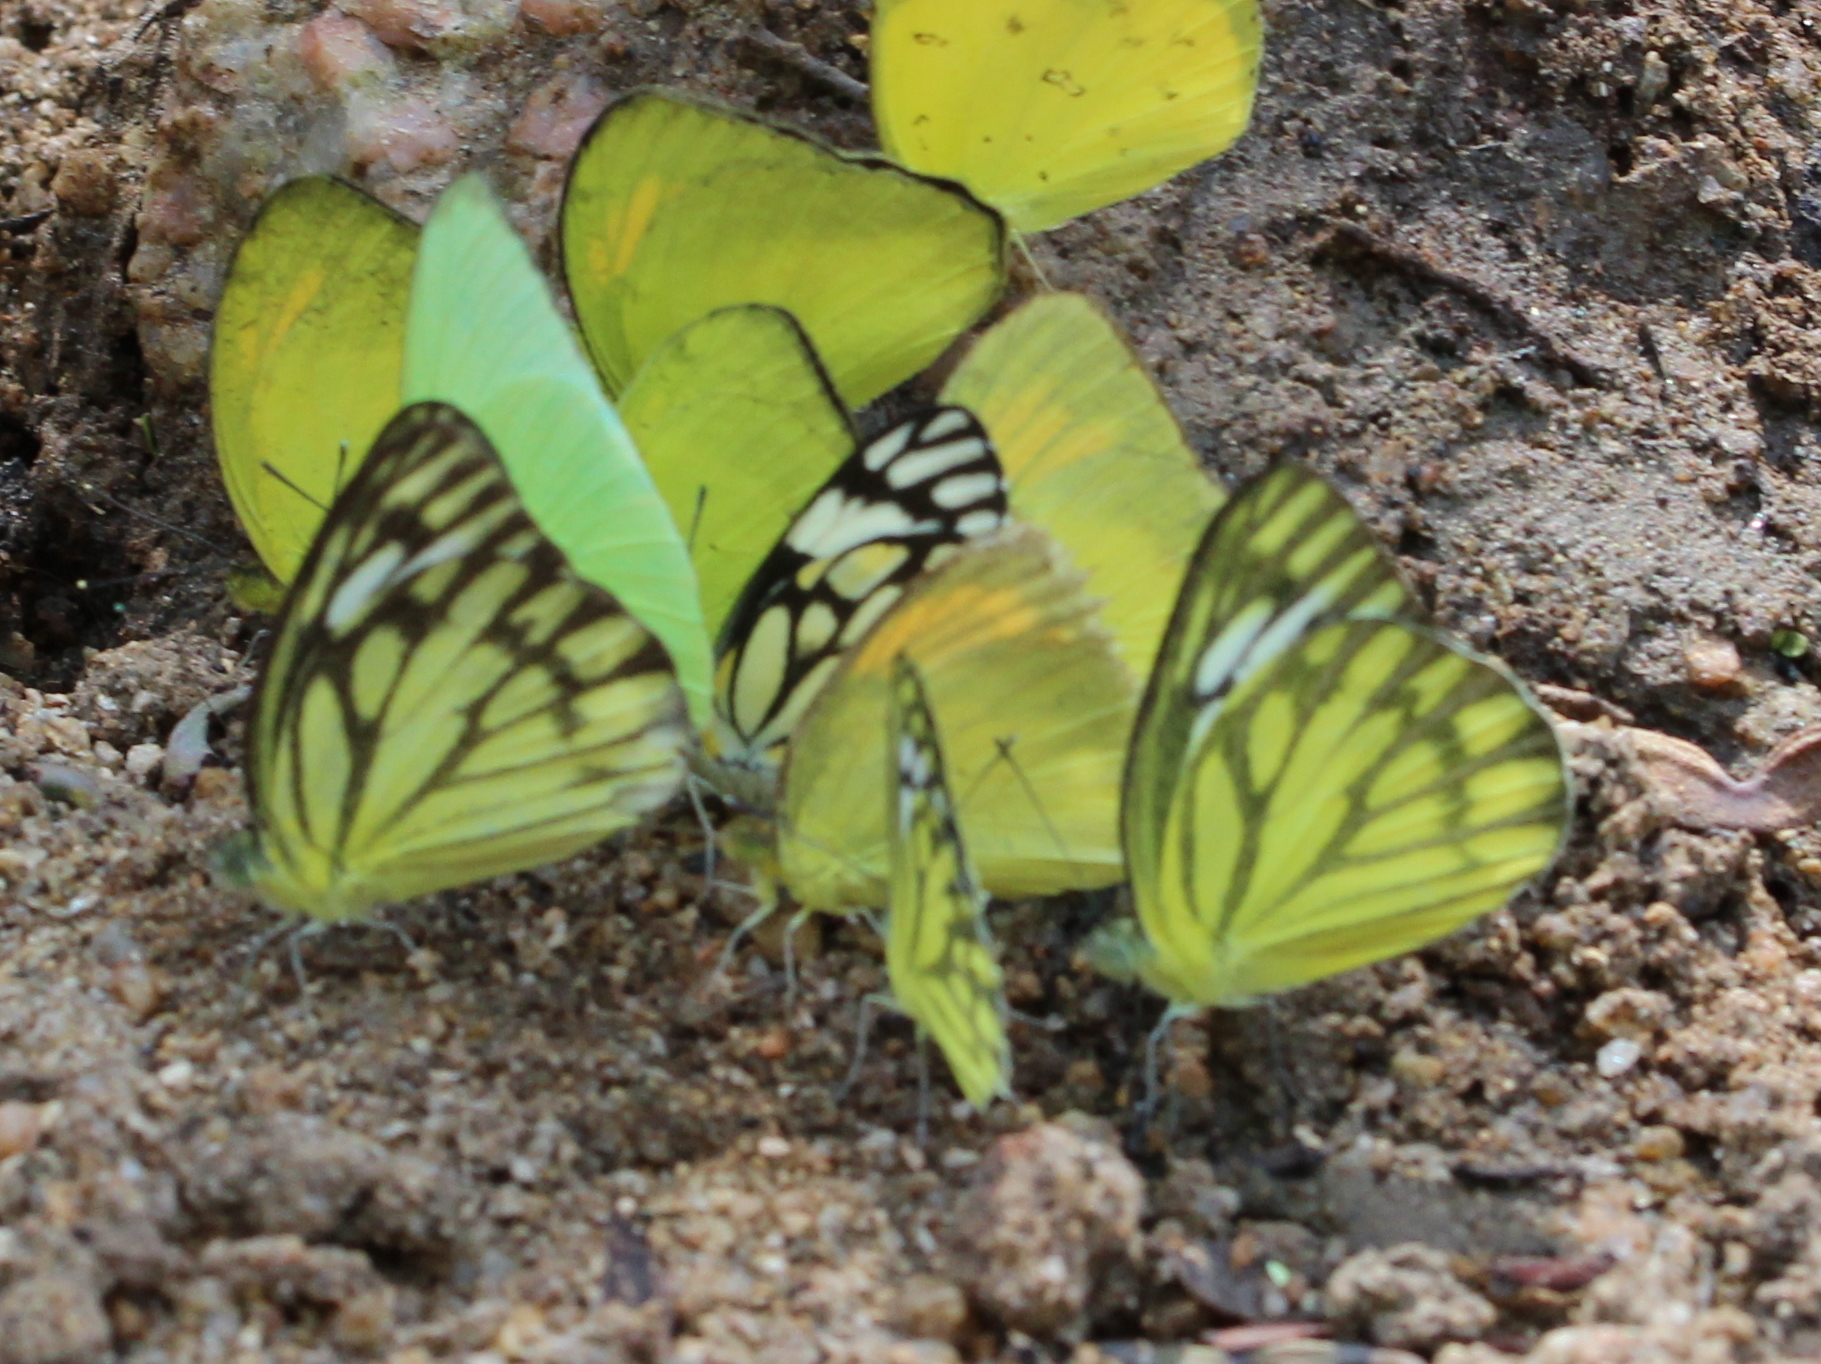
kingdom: Animalia
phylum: Arthropoda
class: Insecta
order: Lepidoptera
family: Pieridae
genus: Cepora
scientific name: Cepora nerissa
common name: Common gull
